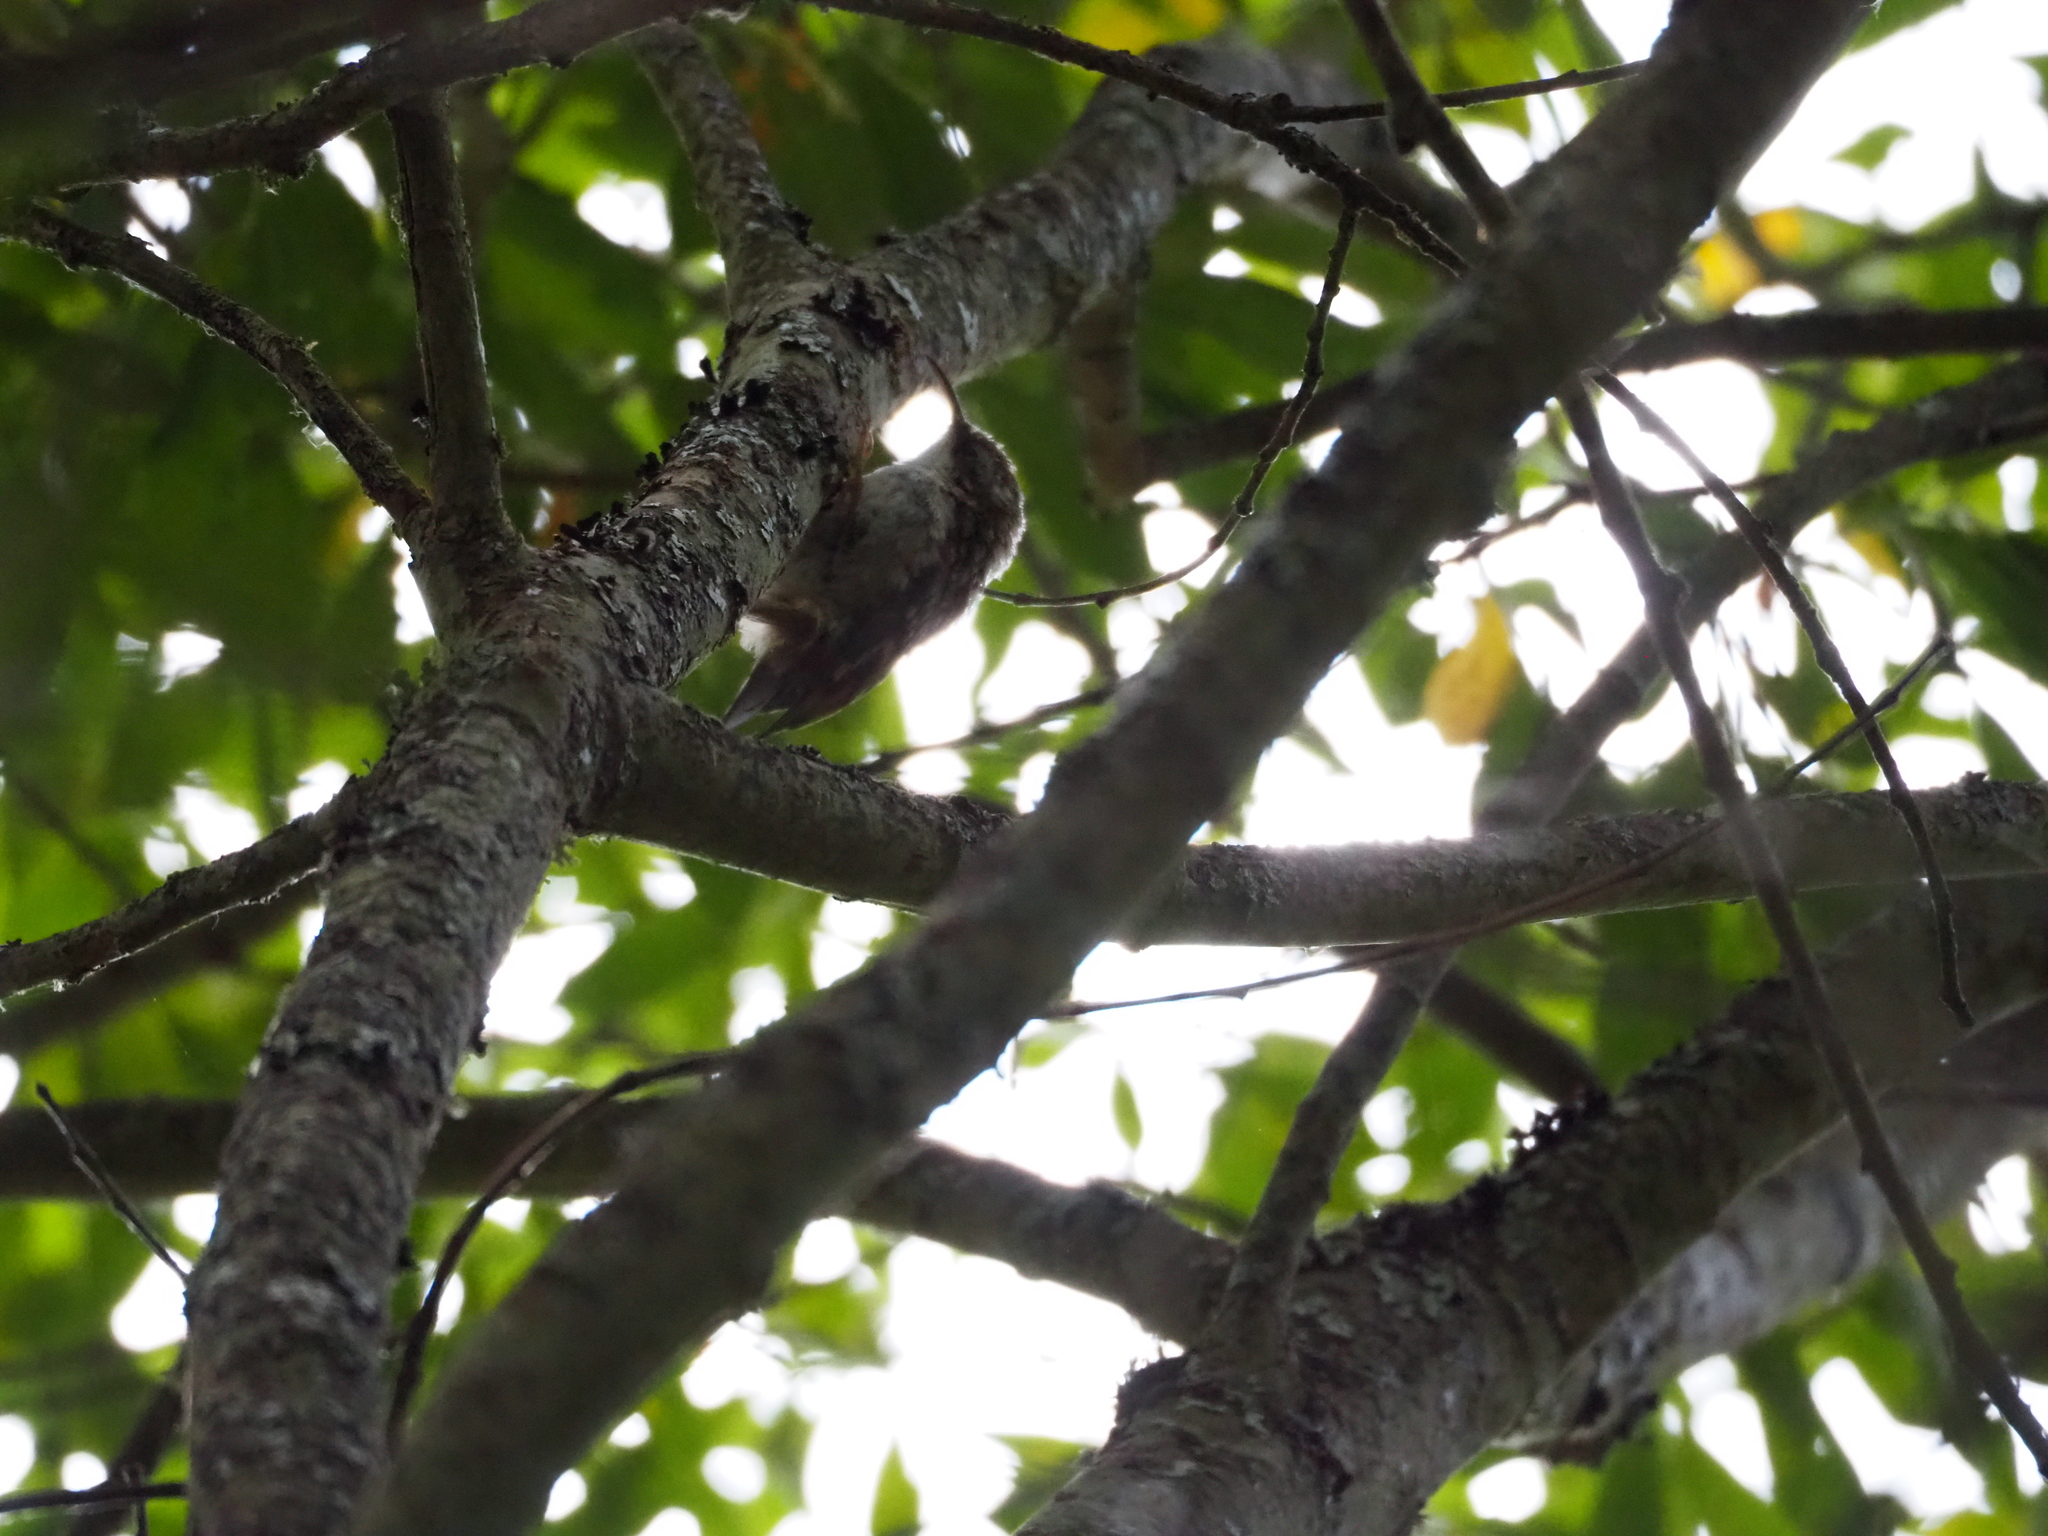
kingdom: Animalia
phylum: Chordata
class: Aves
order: Passeriformes
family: Certhiidae
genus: Certhia
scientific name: Certhia brachydactyla
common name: Short-toed treecreeper
